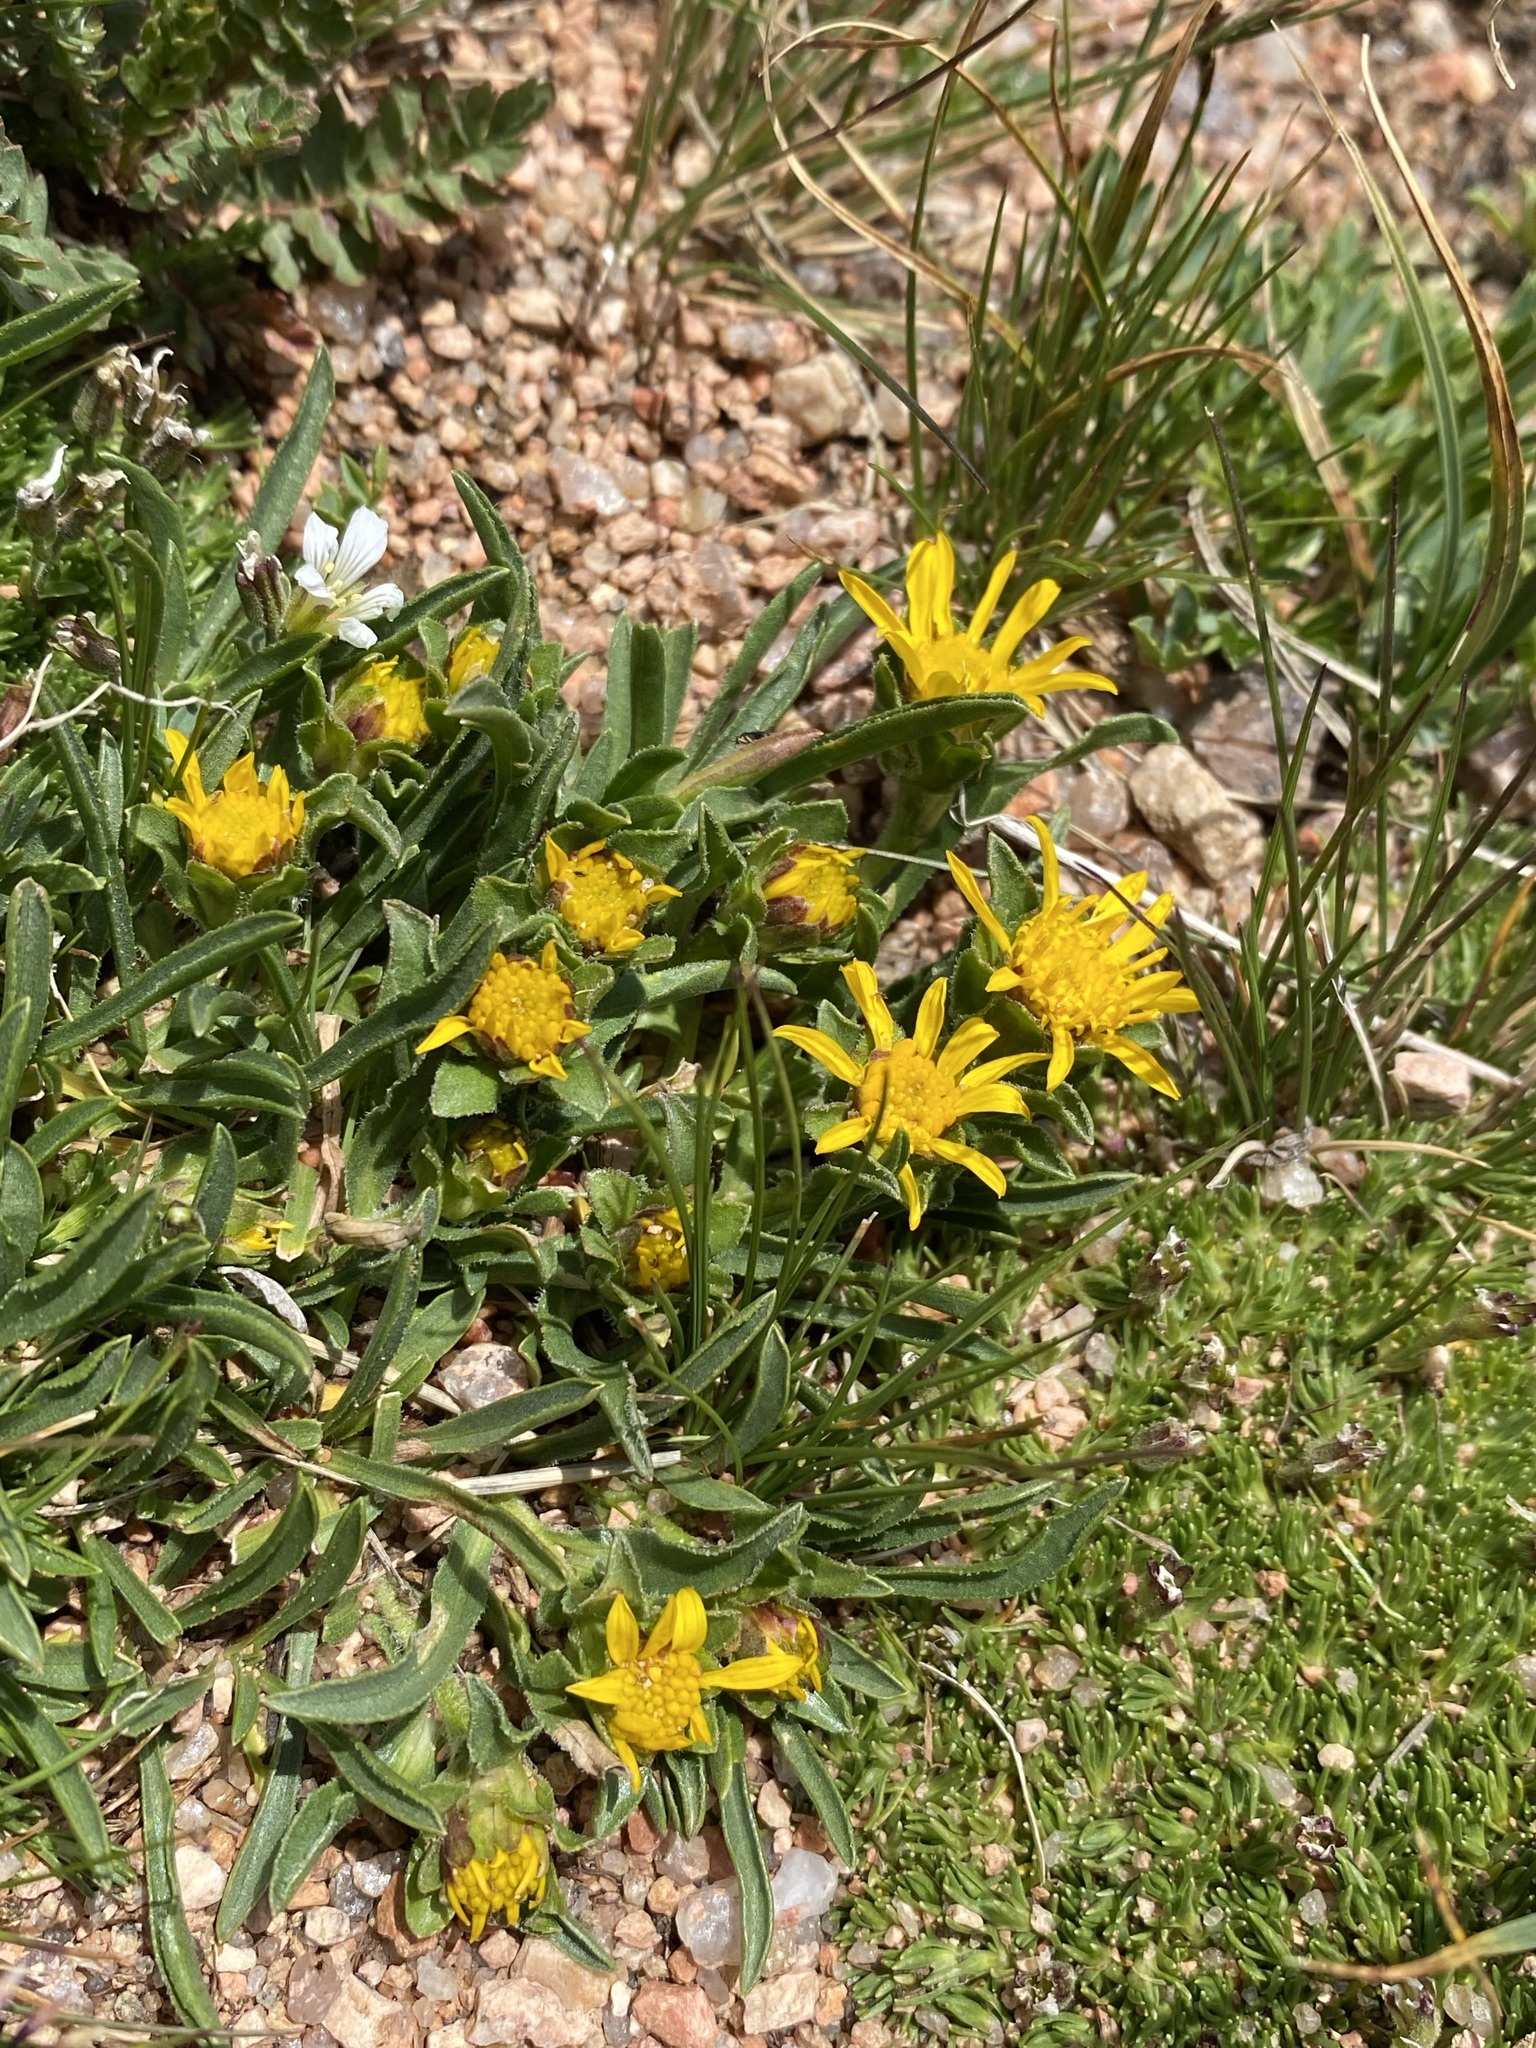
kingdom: Plantae
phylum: Tracheophyta
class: Magnoliopsida
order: Asterales
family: Asteraceae
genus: Tonestus
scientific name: Tonestus pygmaeus
